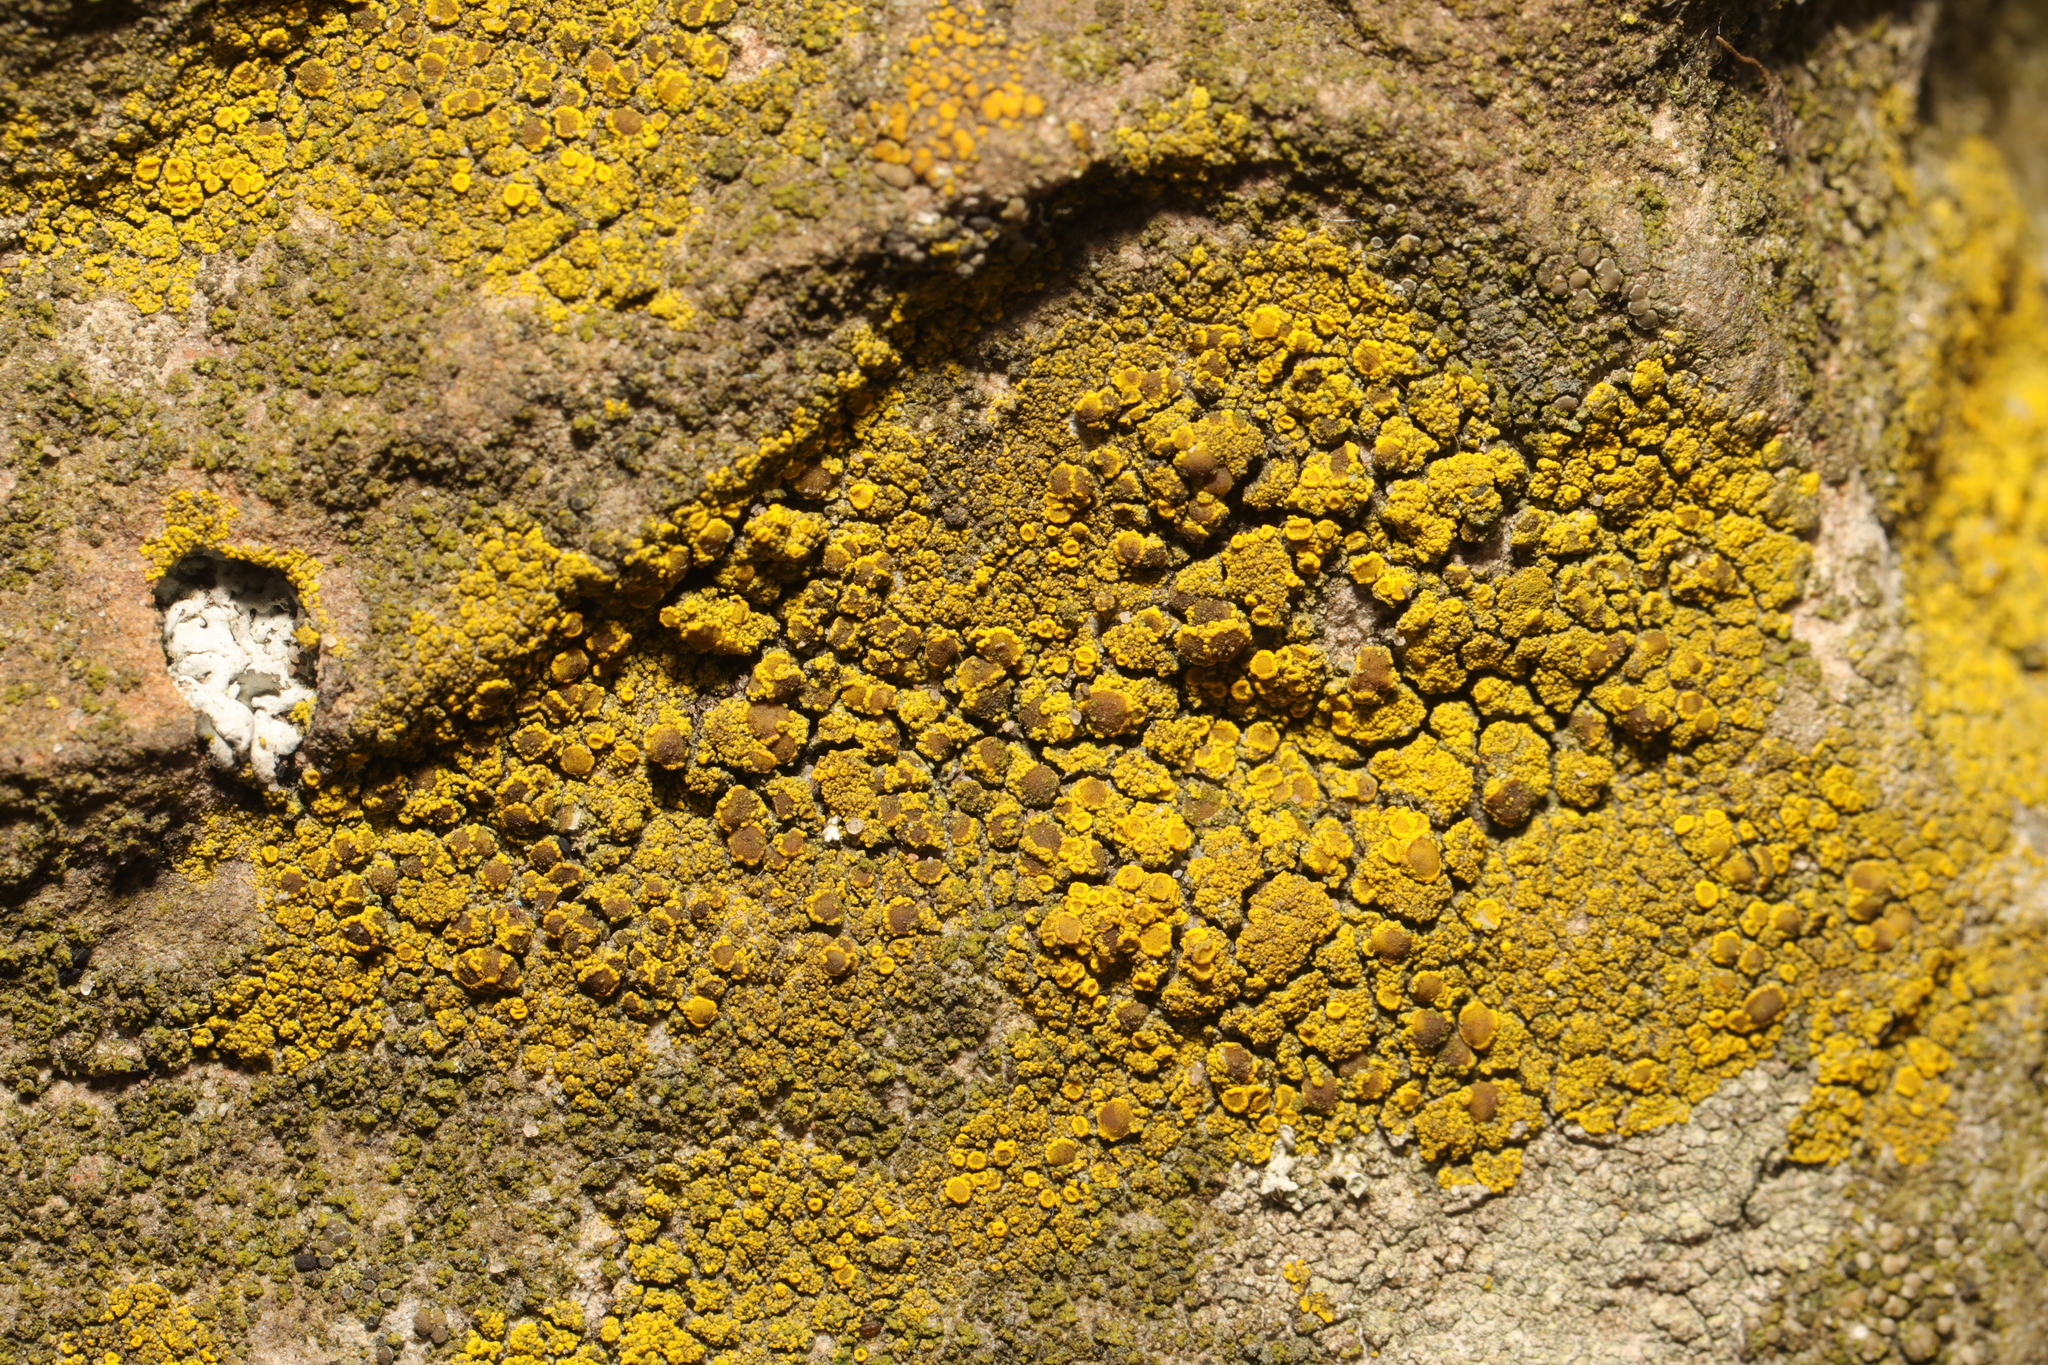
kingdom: Fungi
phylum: Ascomycota
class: Candelariomycetes
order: Candelariales
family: Candelariaceae
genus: Candelariella
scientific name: Candelariella vitellina
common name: Common goldspeck
